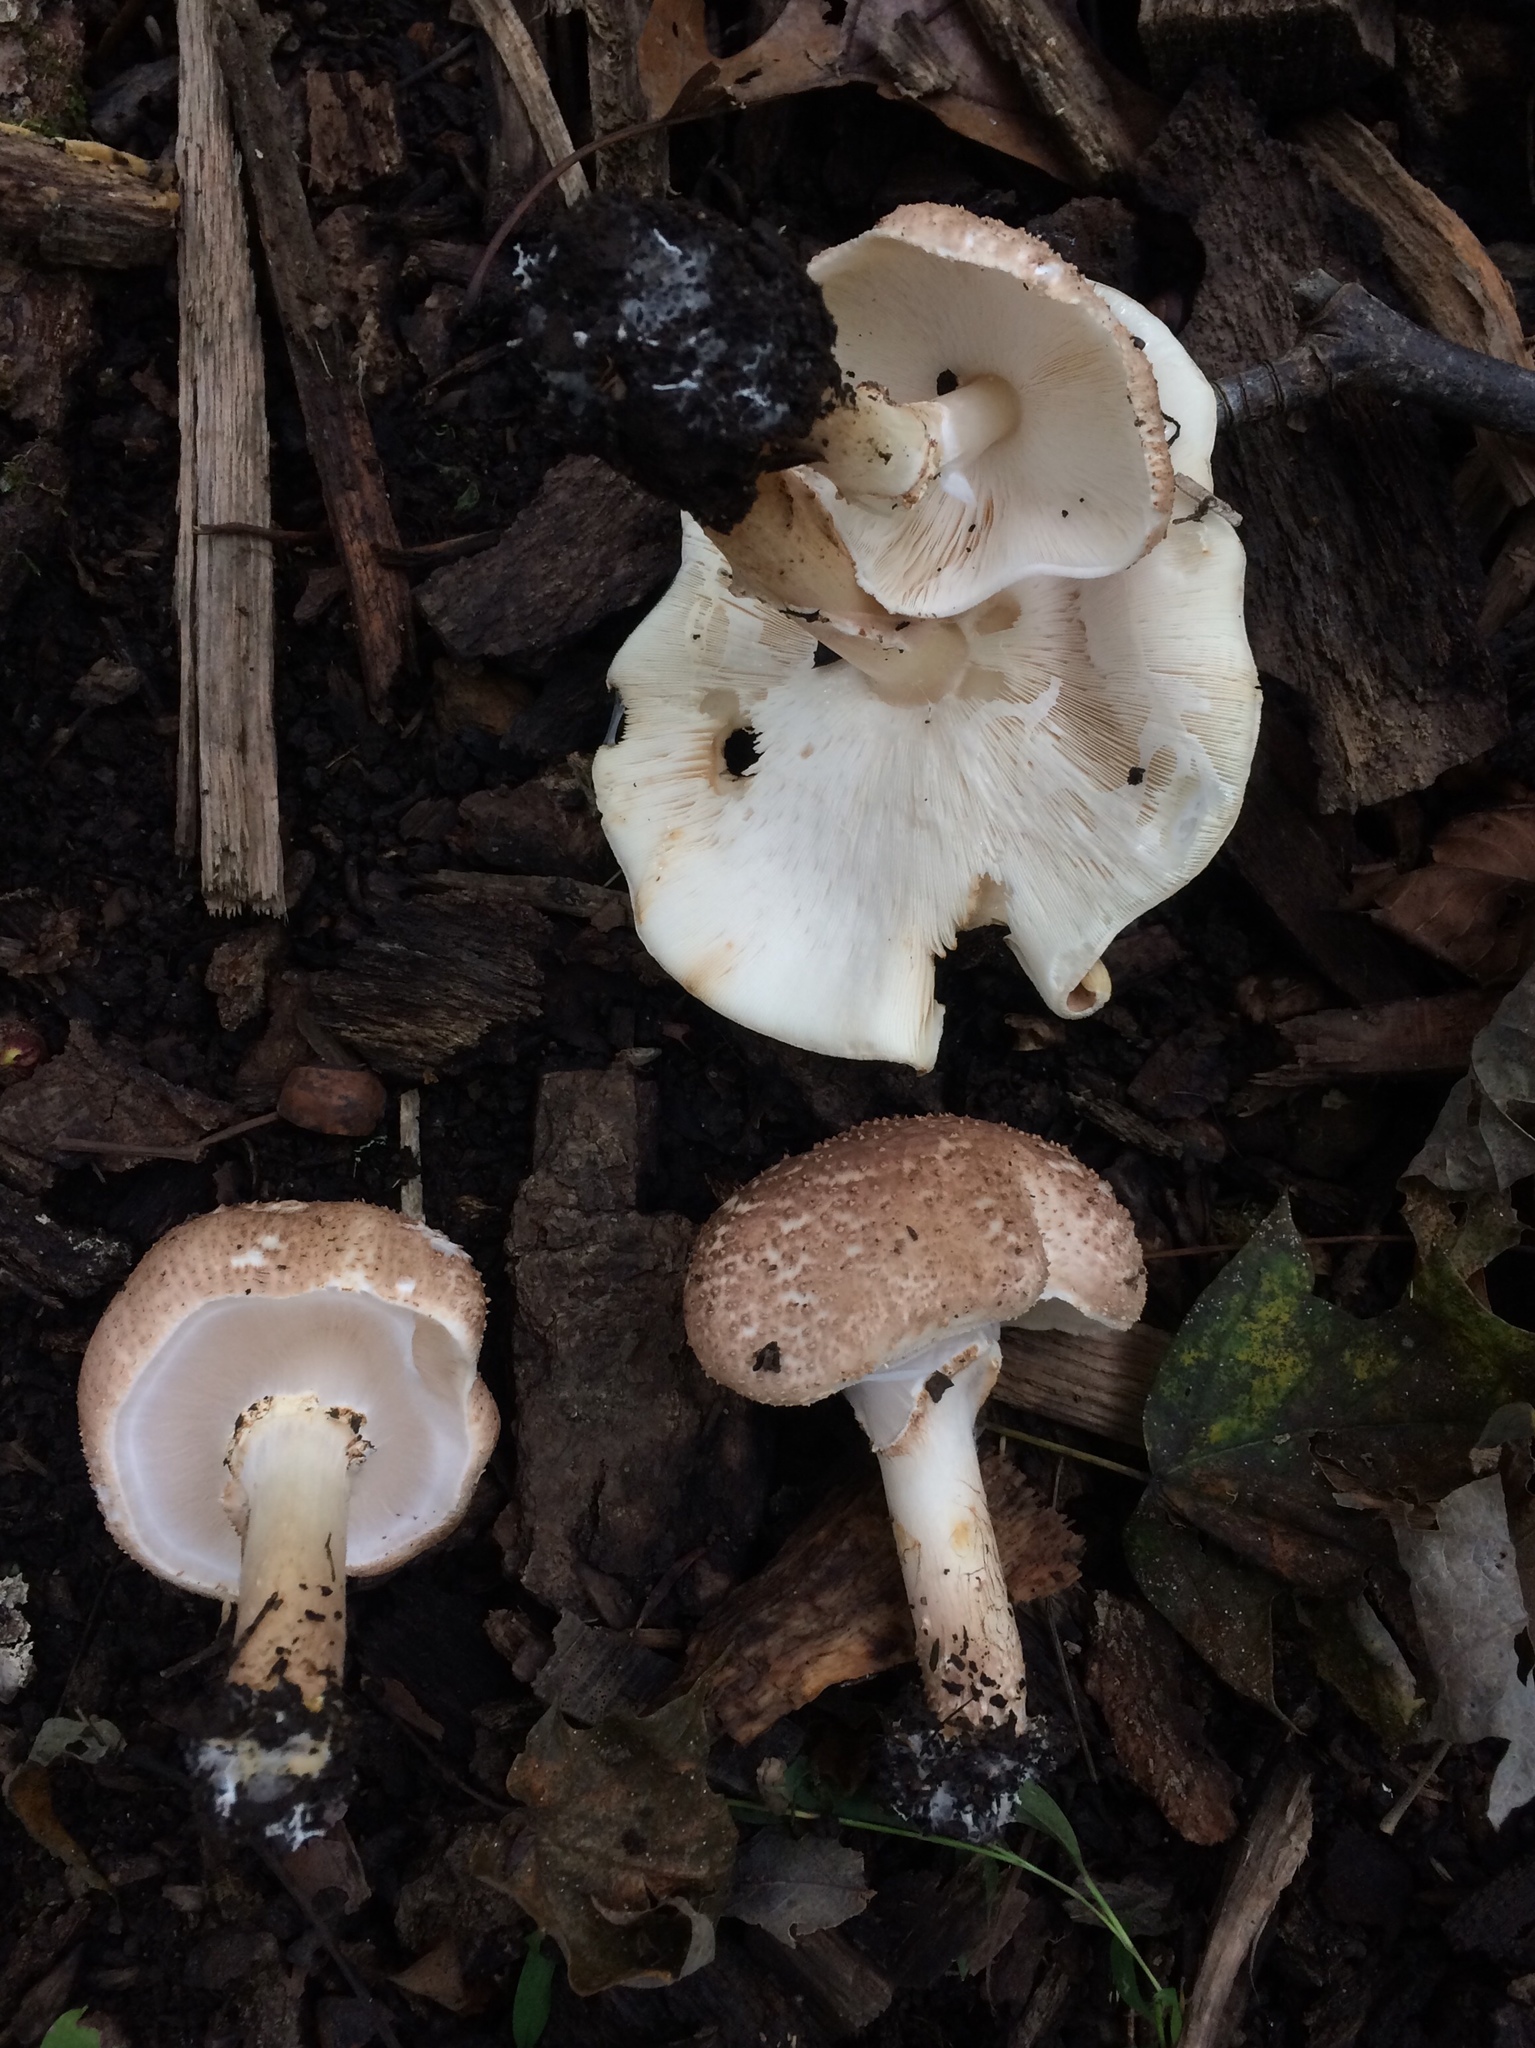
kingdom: Fungi
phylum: Basidiomycota
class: Agaricomycetes
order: Agaricales
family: Agaricaceae
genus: Echinoderma
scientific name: Echinoderma asperum
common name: Freckled dapperling
